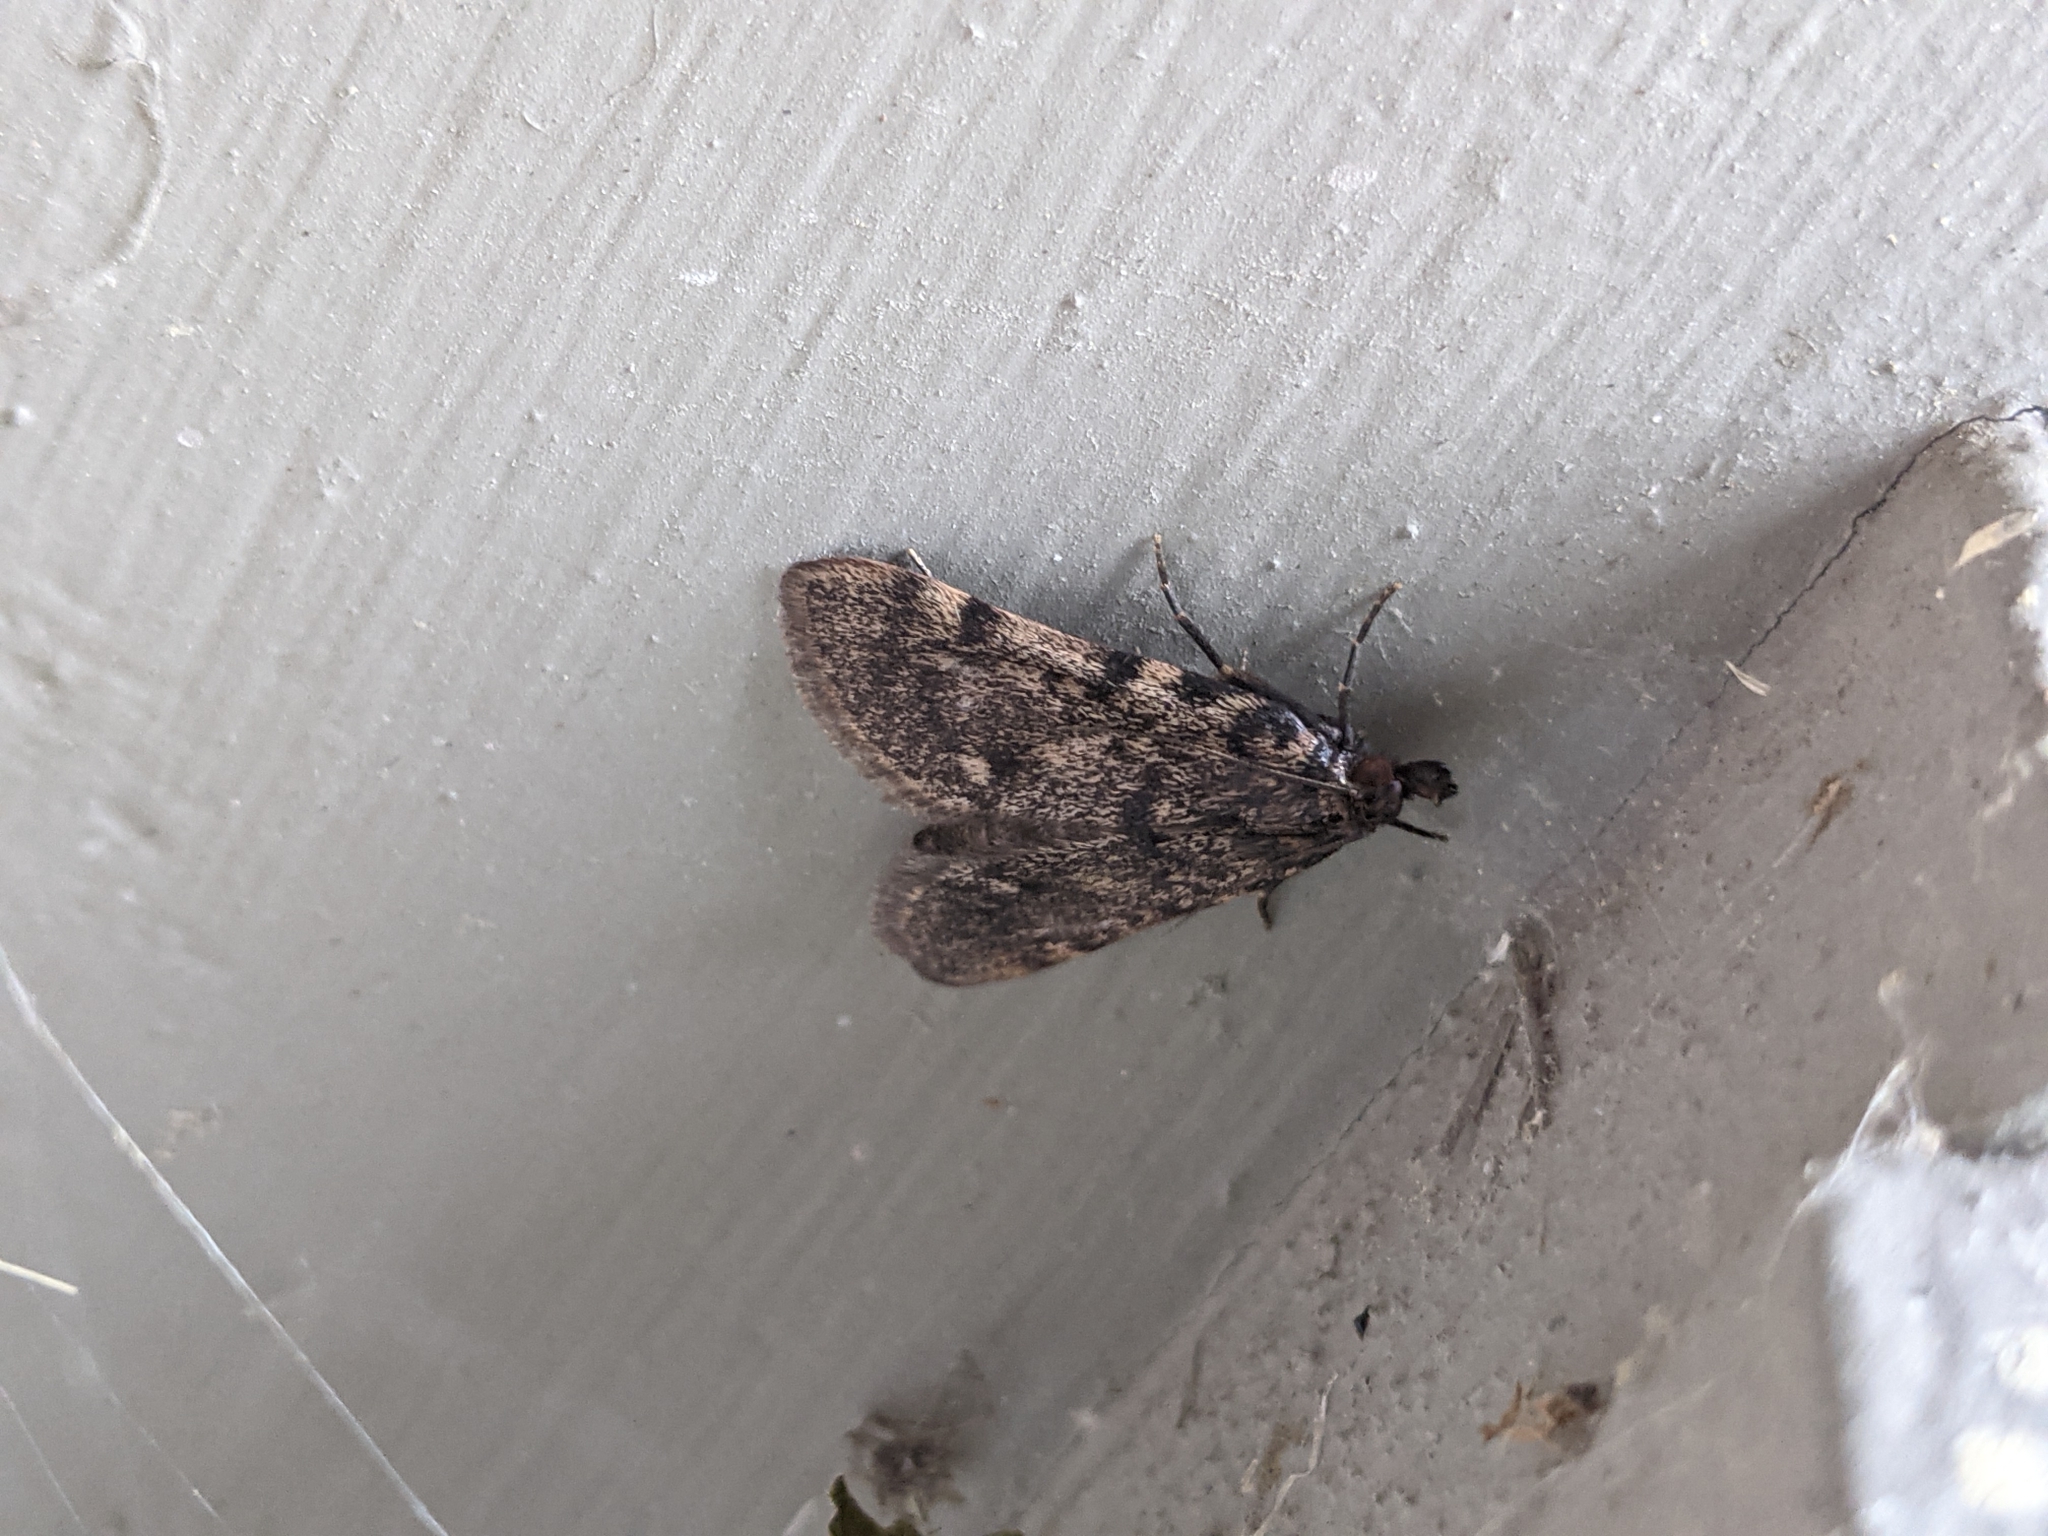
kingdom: Animalia
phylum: Arthropoda
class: Insecta
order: Lepidoptera
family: Pyralidae
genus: Aglossa
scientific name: Aglossa pinguinalis
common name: Large tabby
